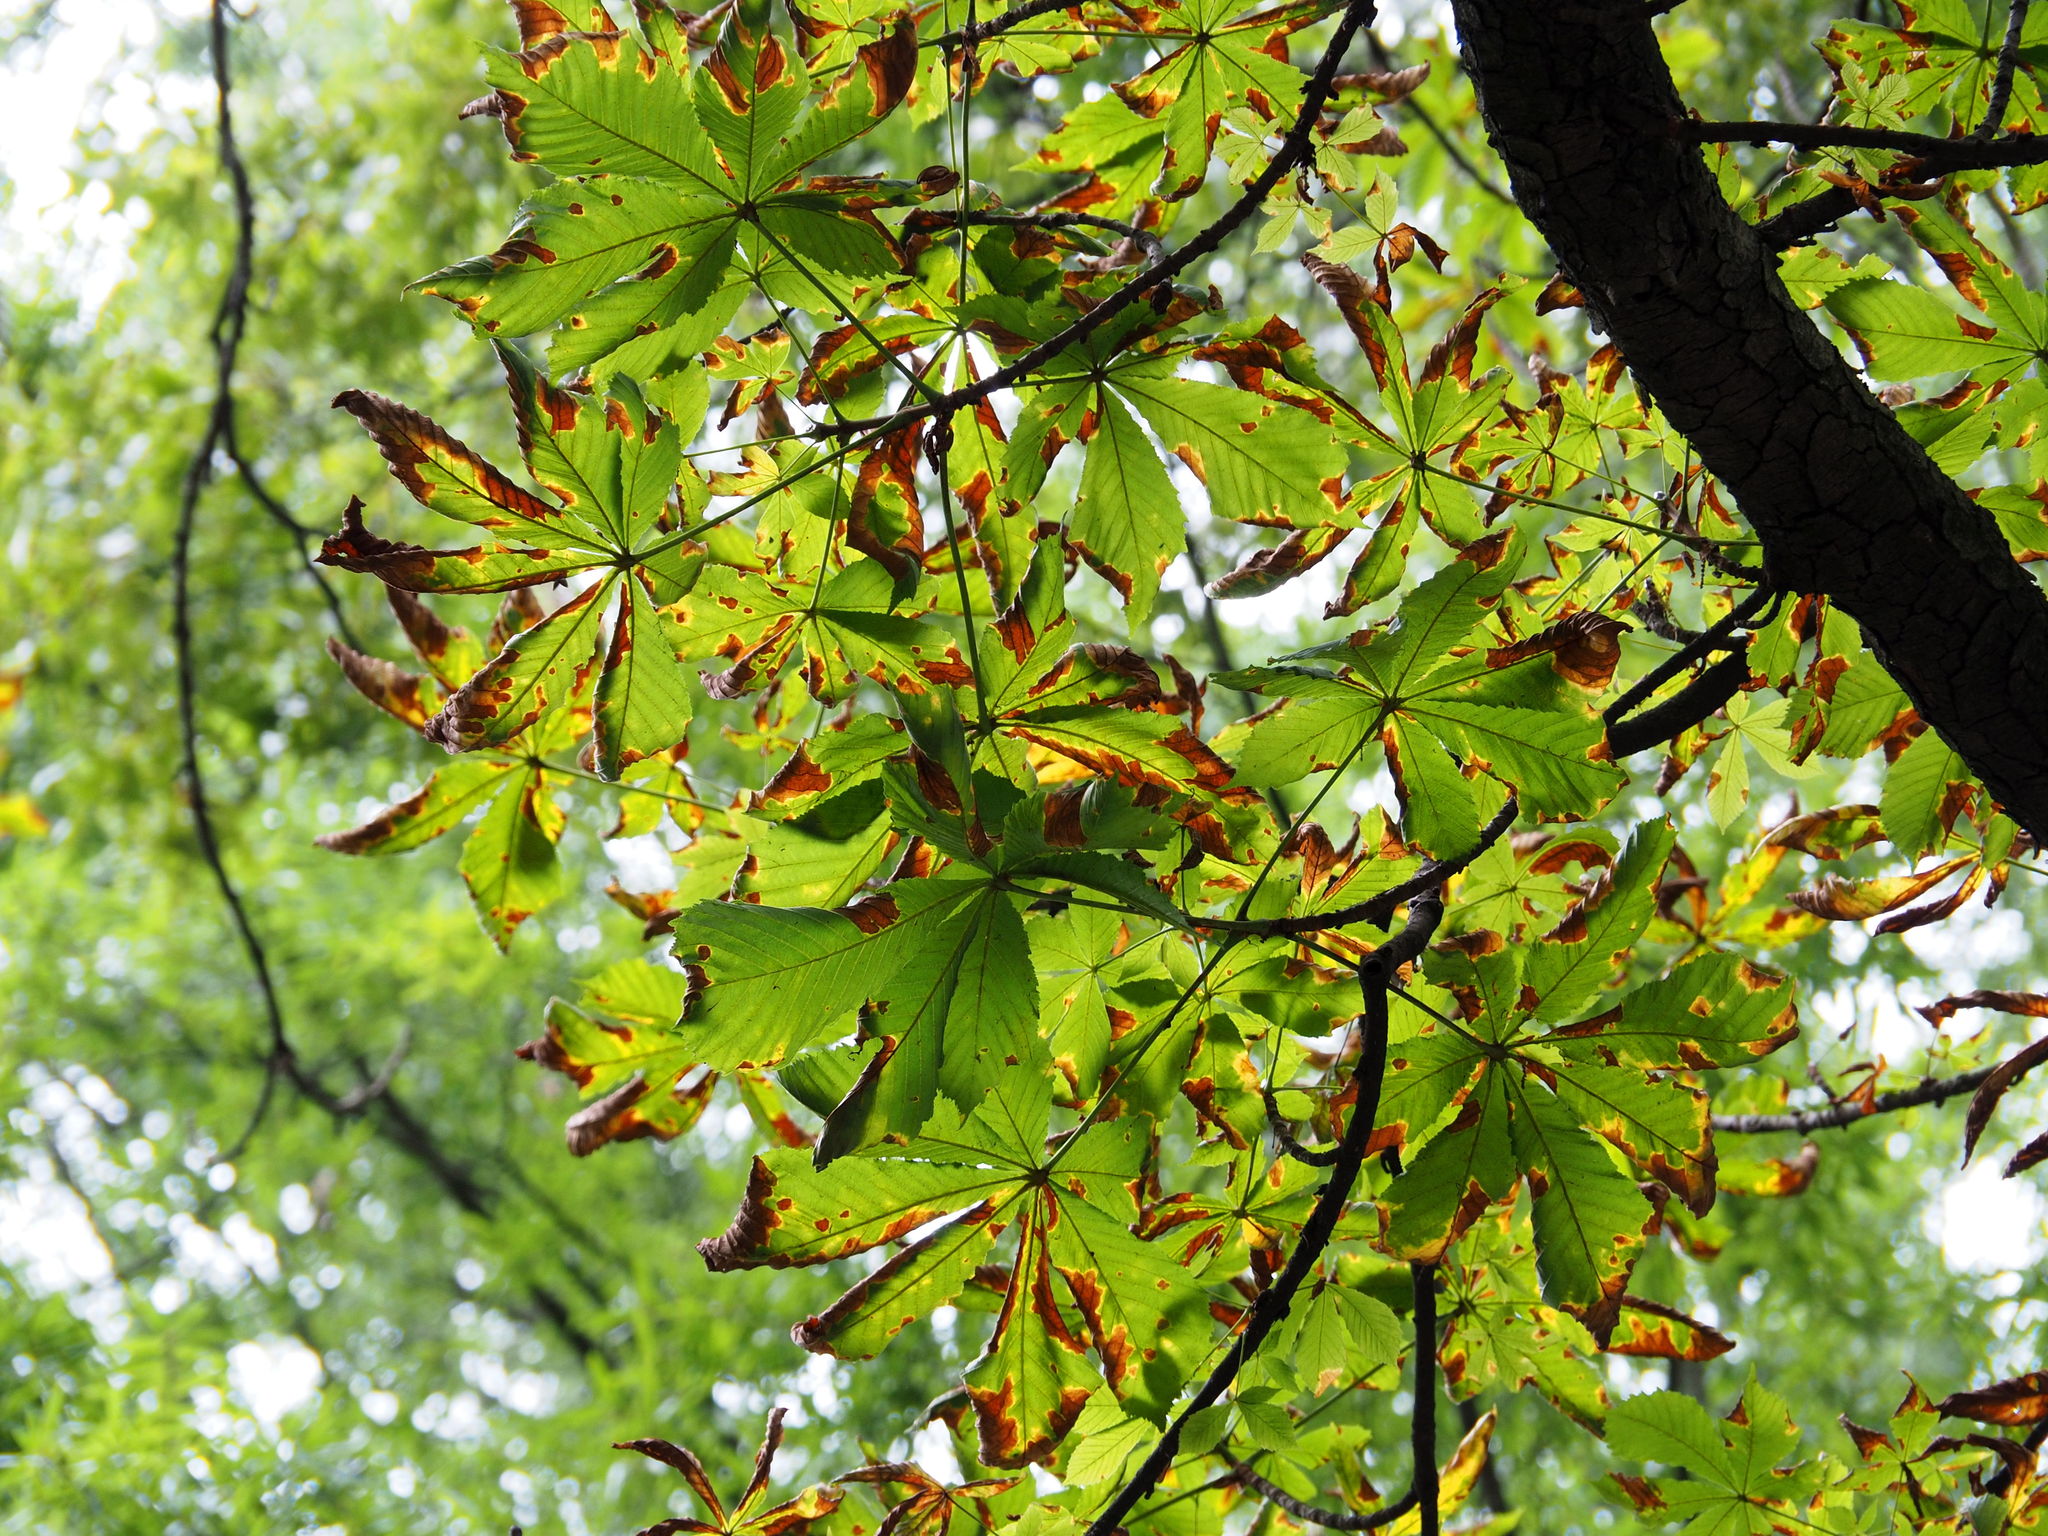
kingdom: Fungi
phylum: Ascomycota
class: Dothideomycetes
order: Botryosphaeriales
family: Phyllostictaceae
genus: Phyllosticta
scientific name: Phyllosticta paviae
